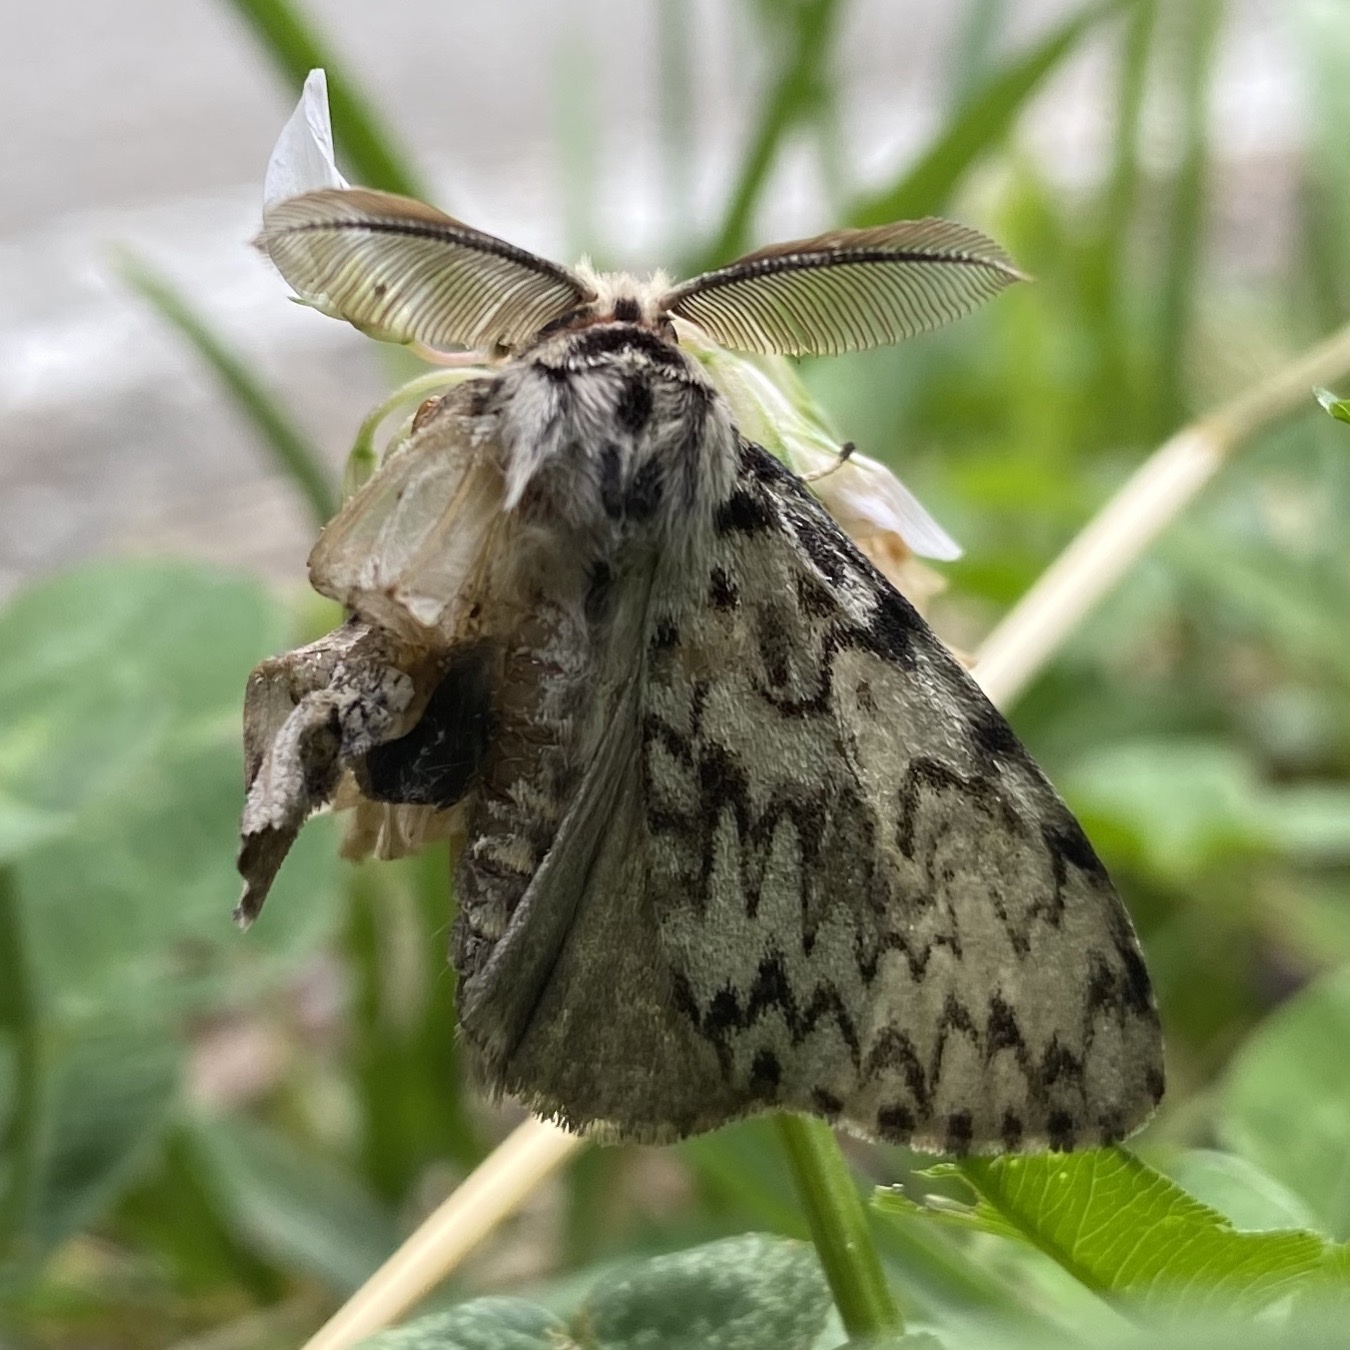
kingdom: Animalia
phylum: Arthropoda
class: Insecta
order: Lepidoptera
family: Erebidae
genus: Lymantria
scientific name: Lymantria monacha
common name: Black arches
